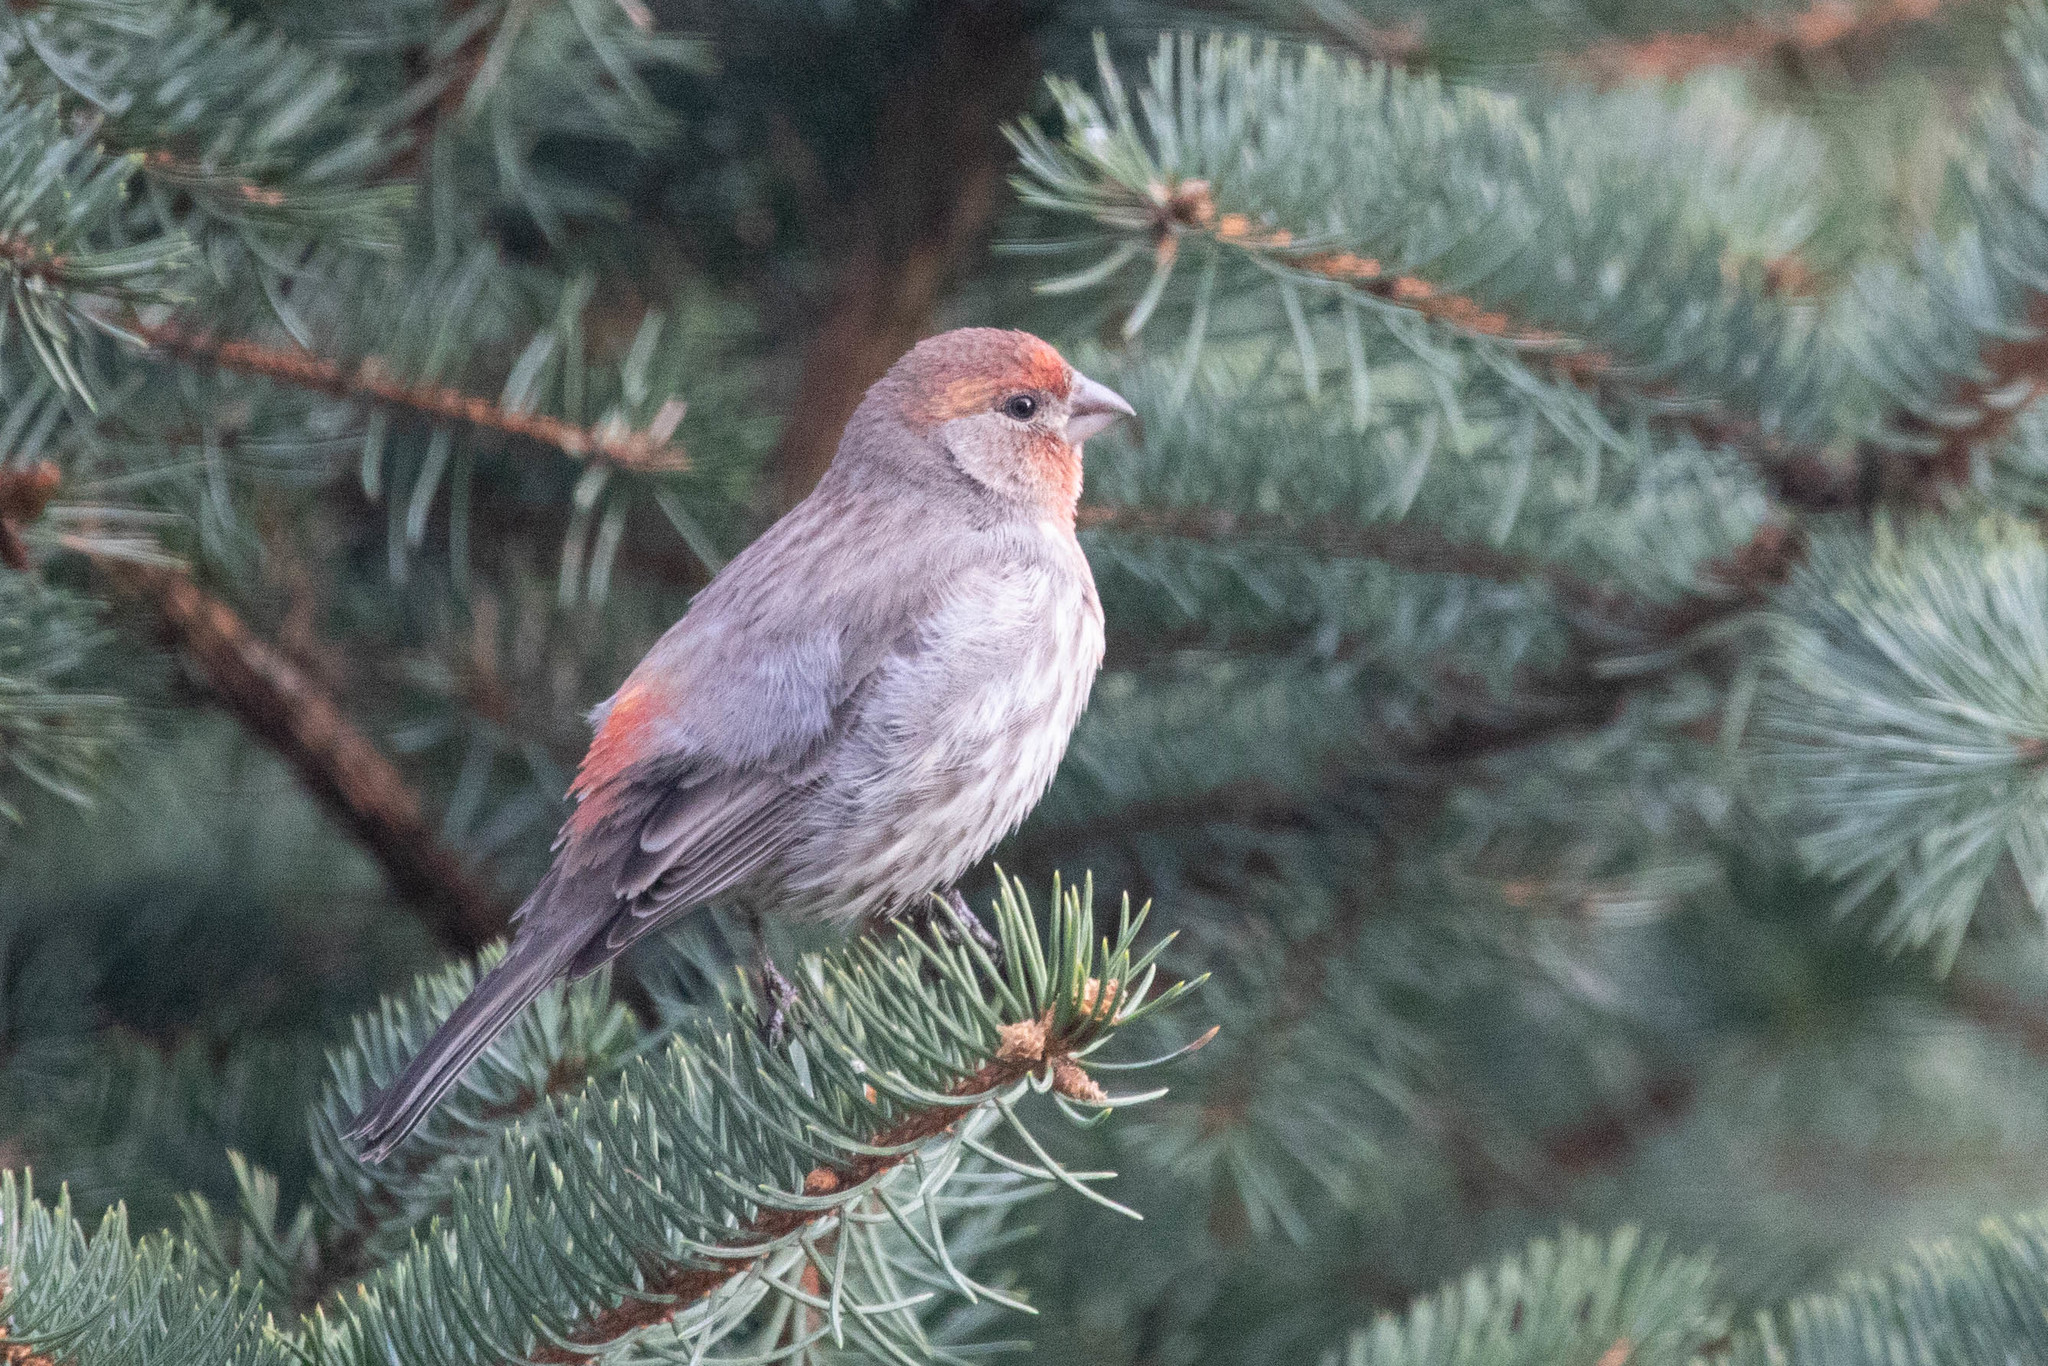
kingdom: Animalia
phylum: Chordata
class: Aves
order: Passeriformes
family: Fringillidae
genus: Haemorhous
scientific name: Haemorhous mexicanus
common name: House finch
